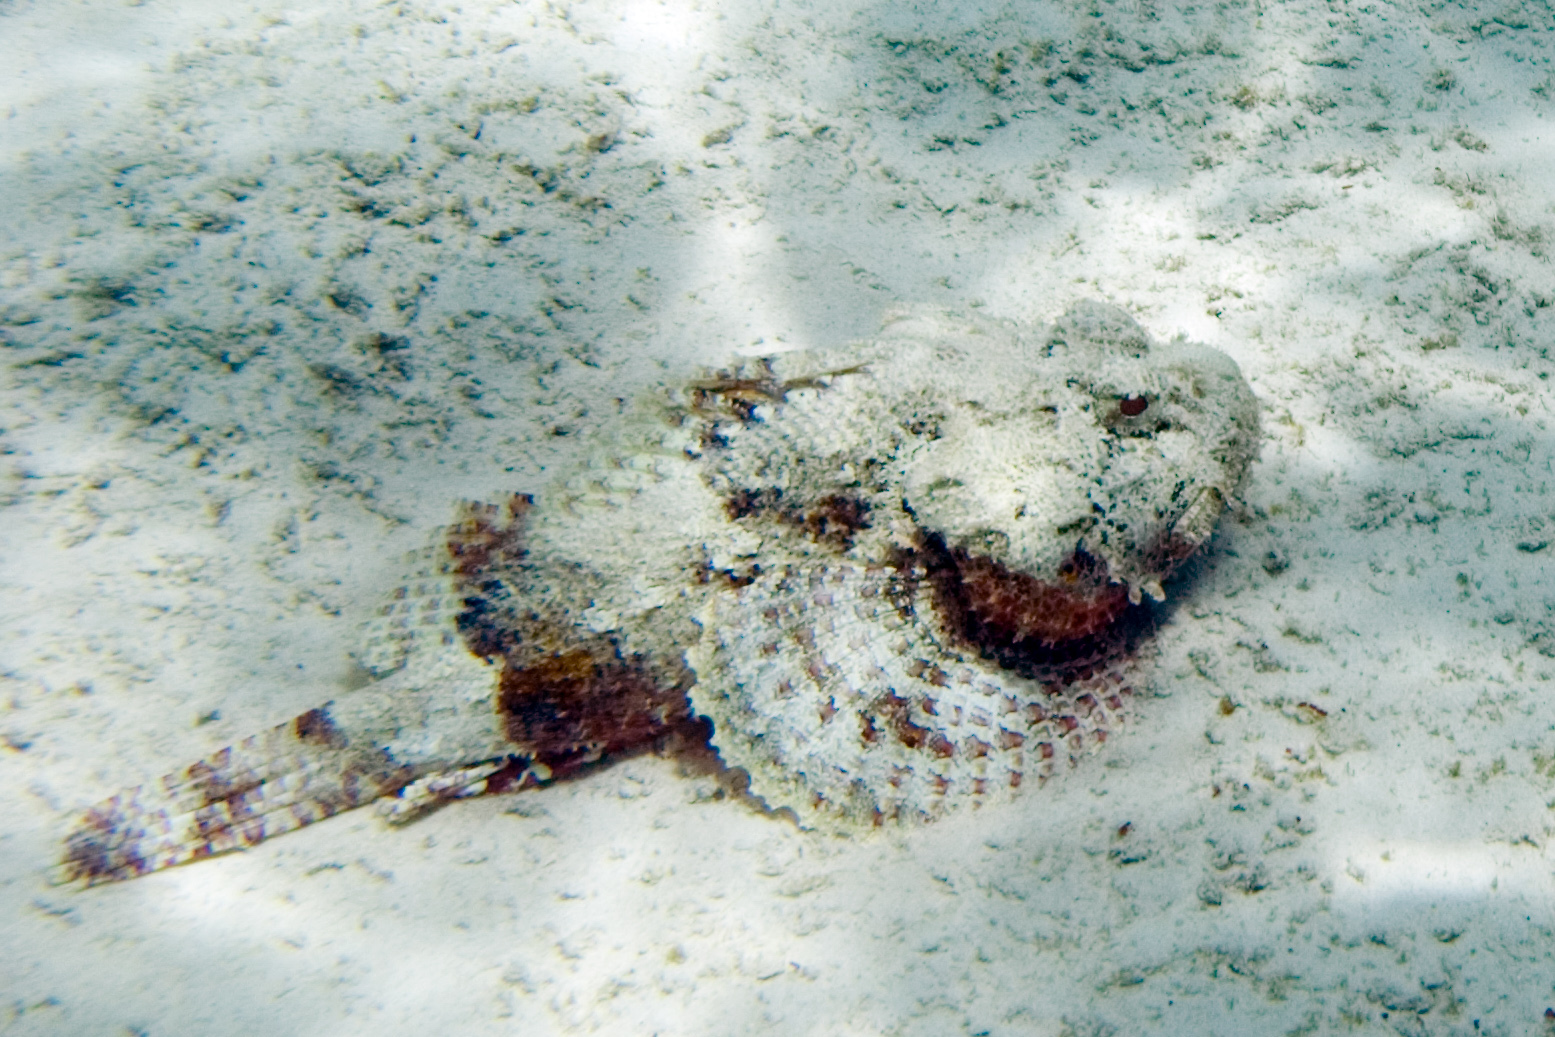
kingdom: Animalia
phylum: Chordata
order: Scorpaeniformes
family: Scorpaenidae
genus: Scorpaena
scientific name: Scorpaena plumieri
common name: Spotted scorpionfish
